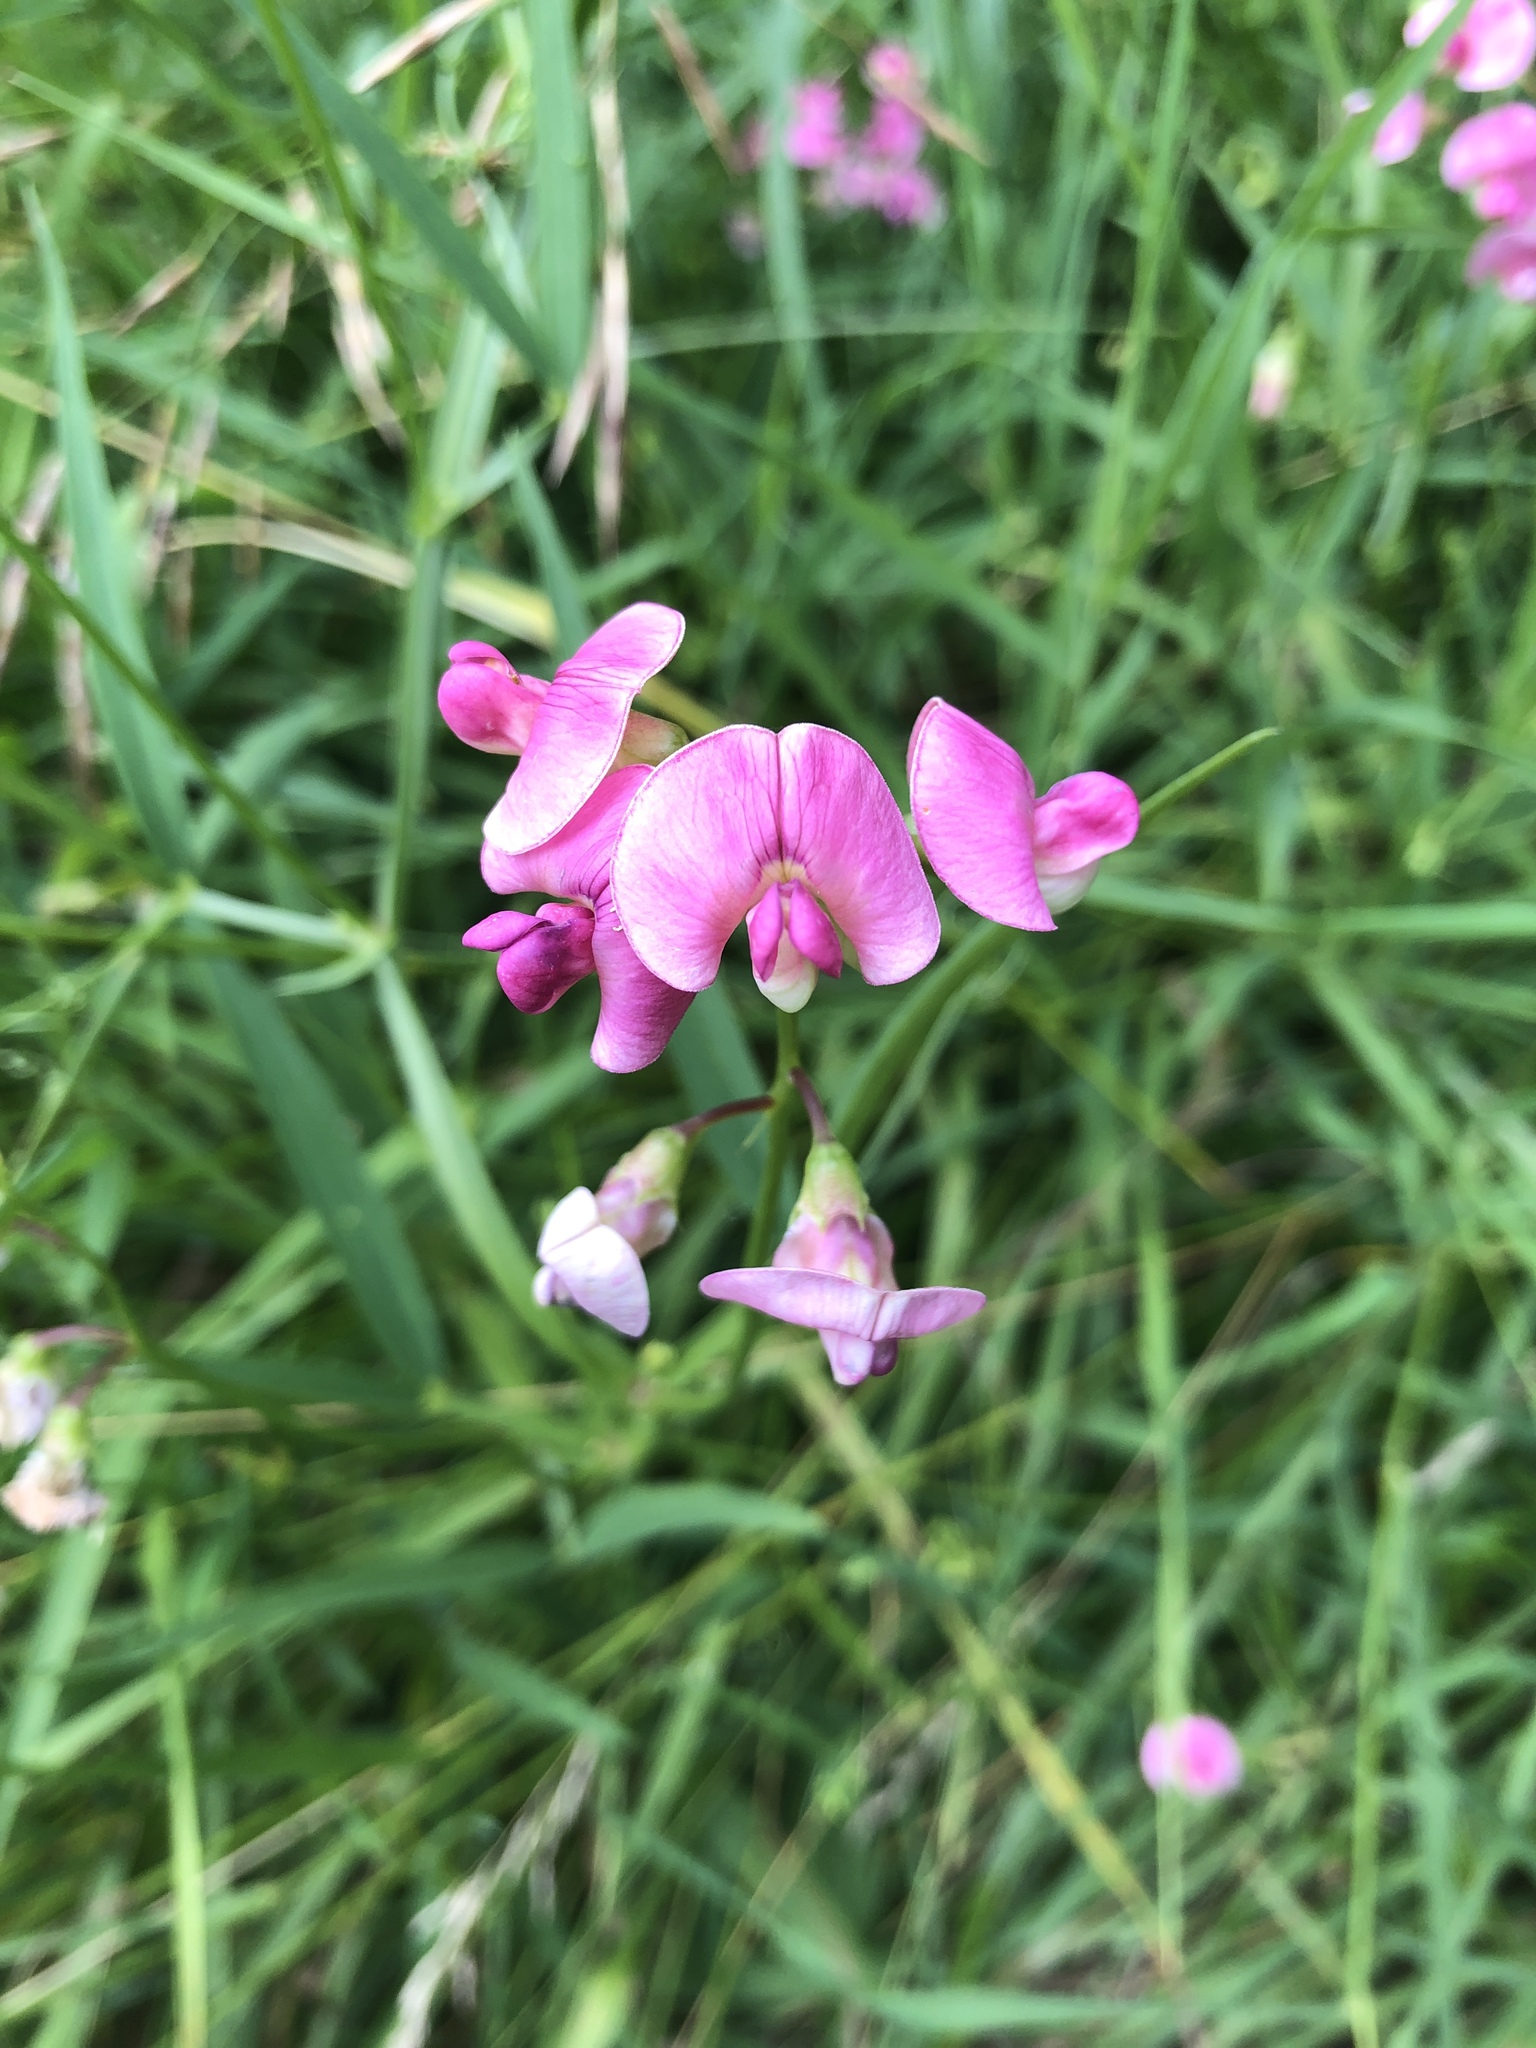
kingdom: Plantae
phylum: Tracheophyta
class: Magnoliopsida
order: Fabales
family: Fabaceae
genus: Lathyrus
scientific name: Lathyrus sylvestris
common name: Flat pea
